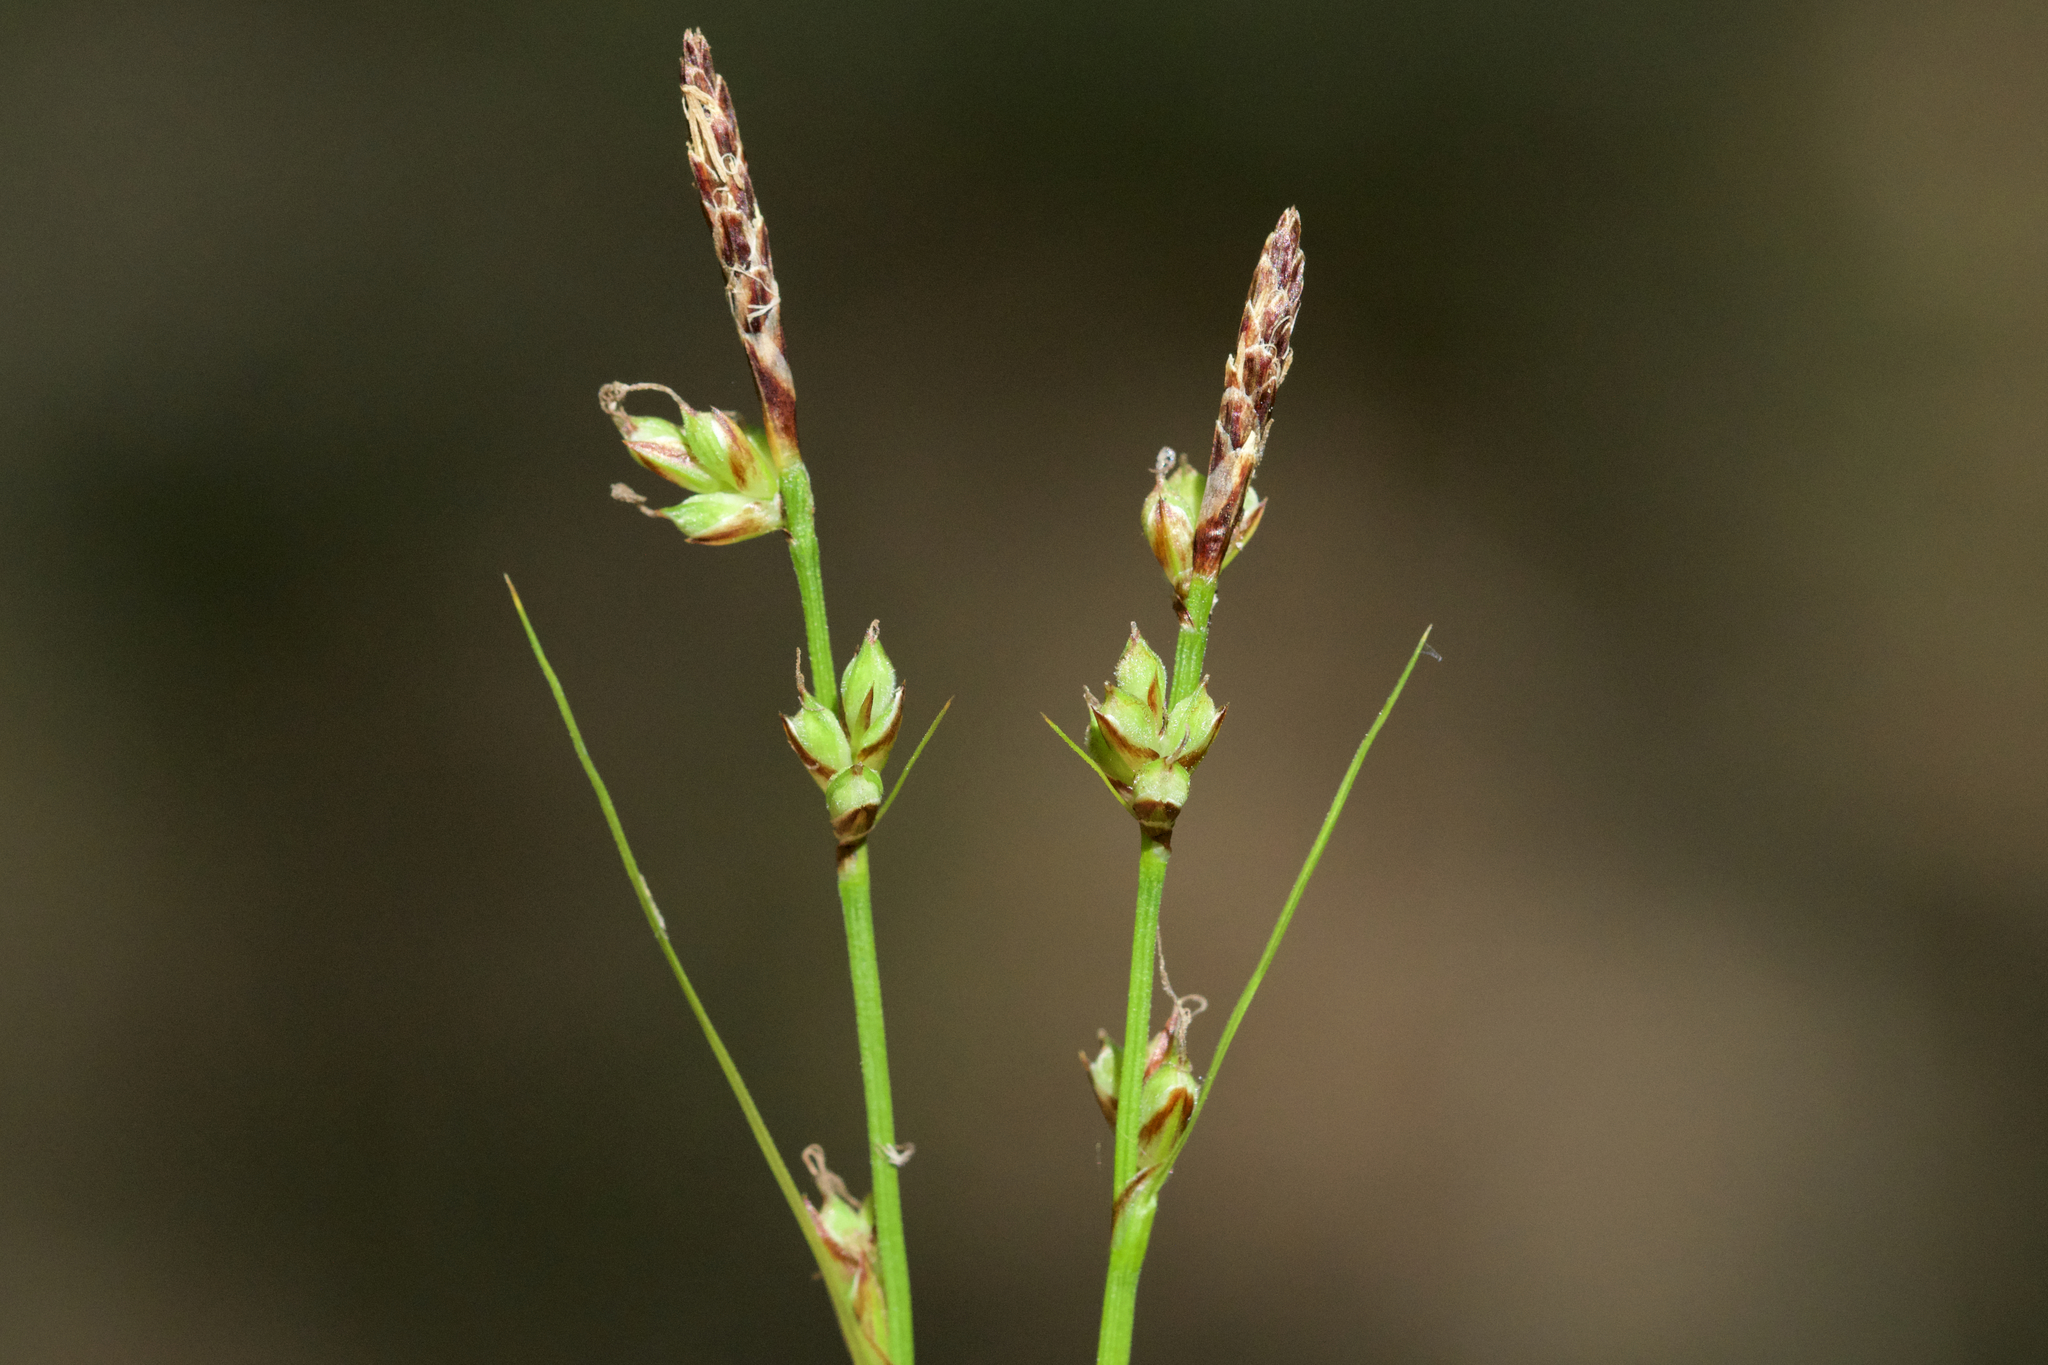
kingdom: Plantae
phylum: Tracheophyta
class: Liliopsida
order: Poales
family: Cyperaceae
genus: Carex
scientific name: Carex communis
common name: Colonial oak sedge
